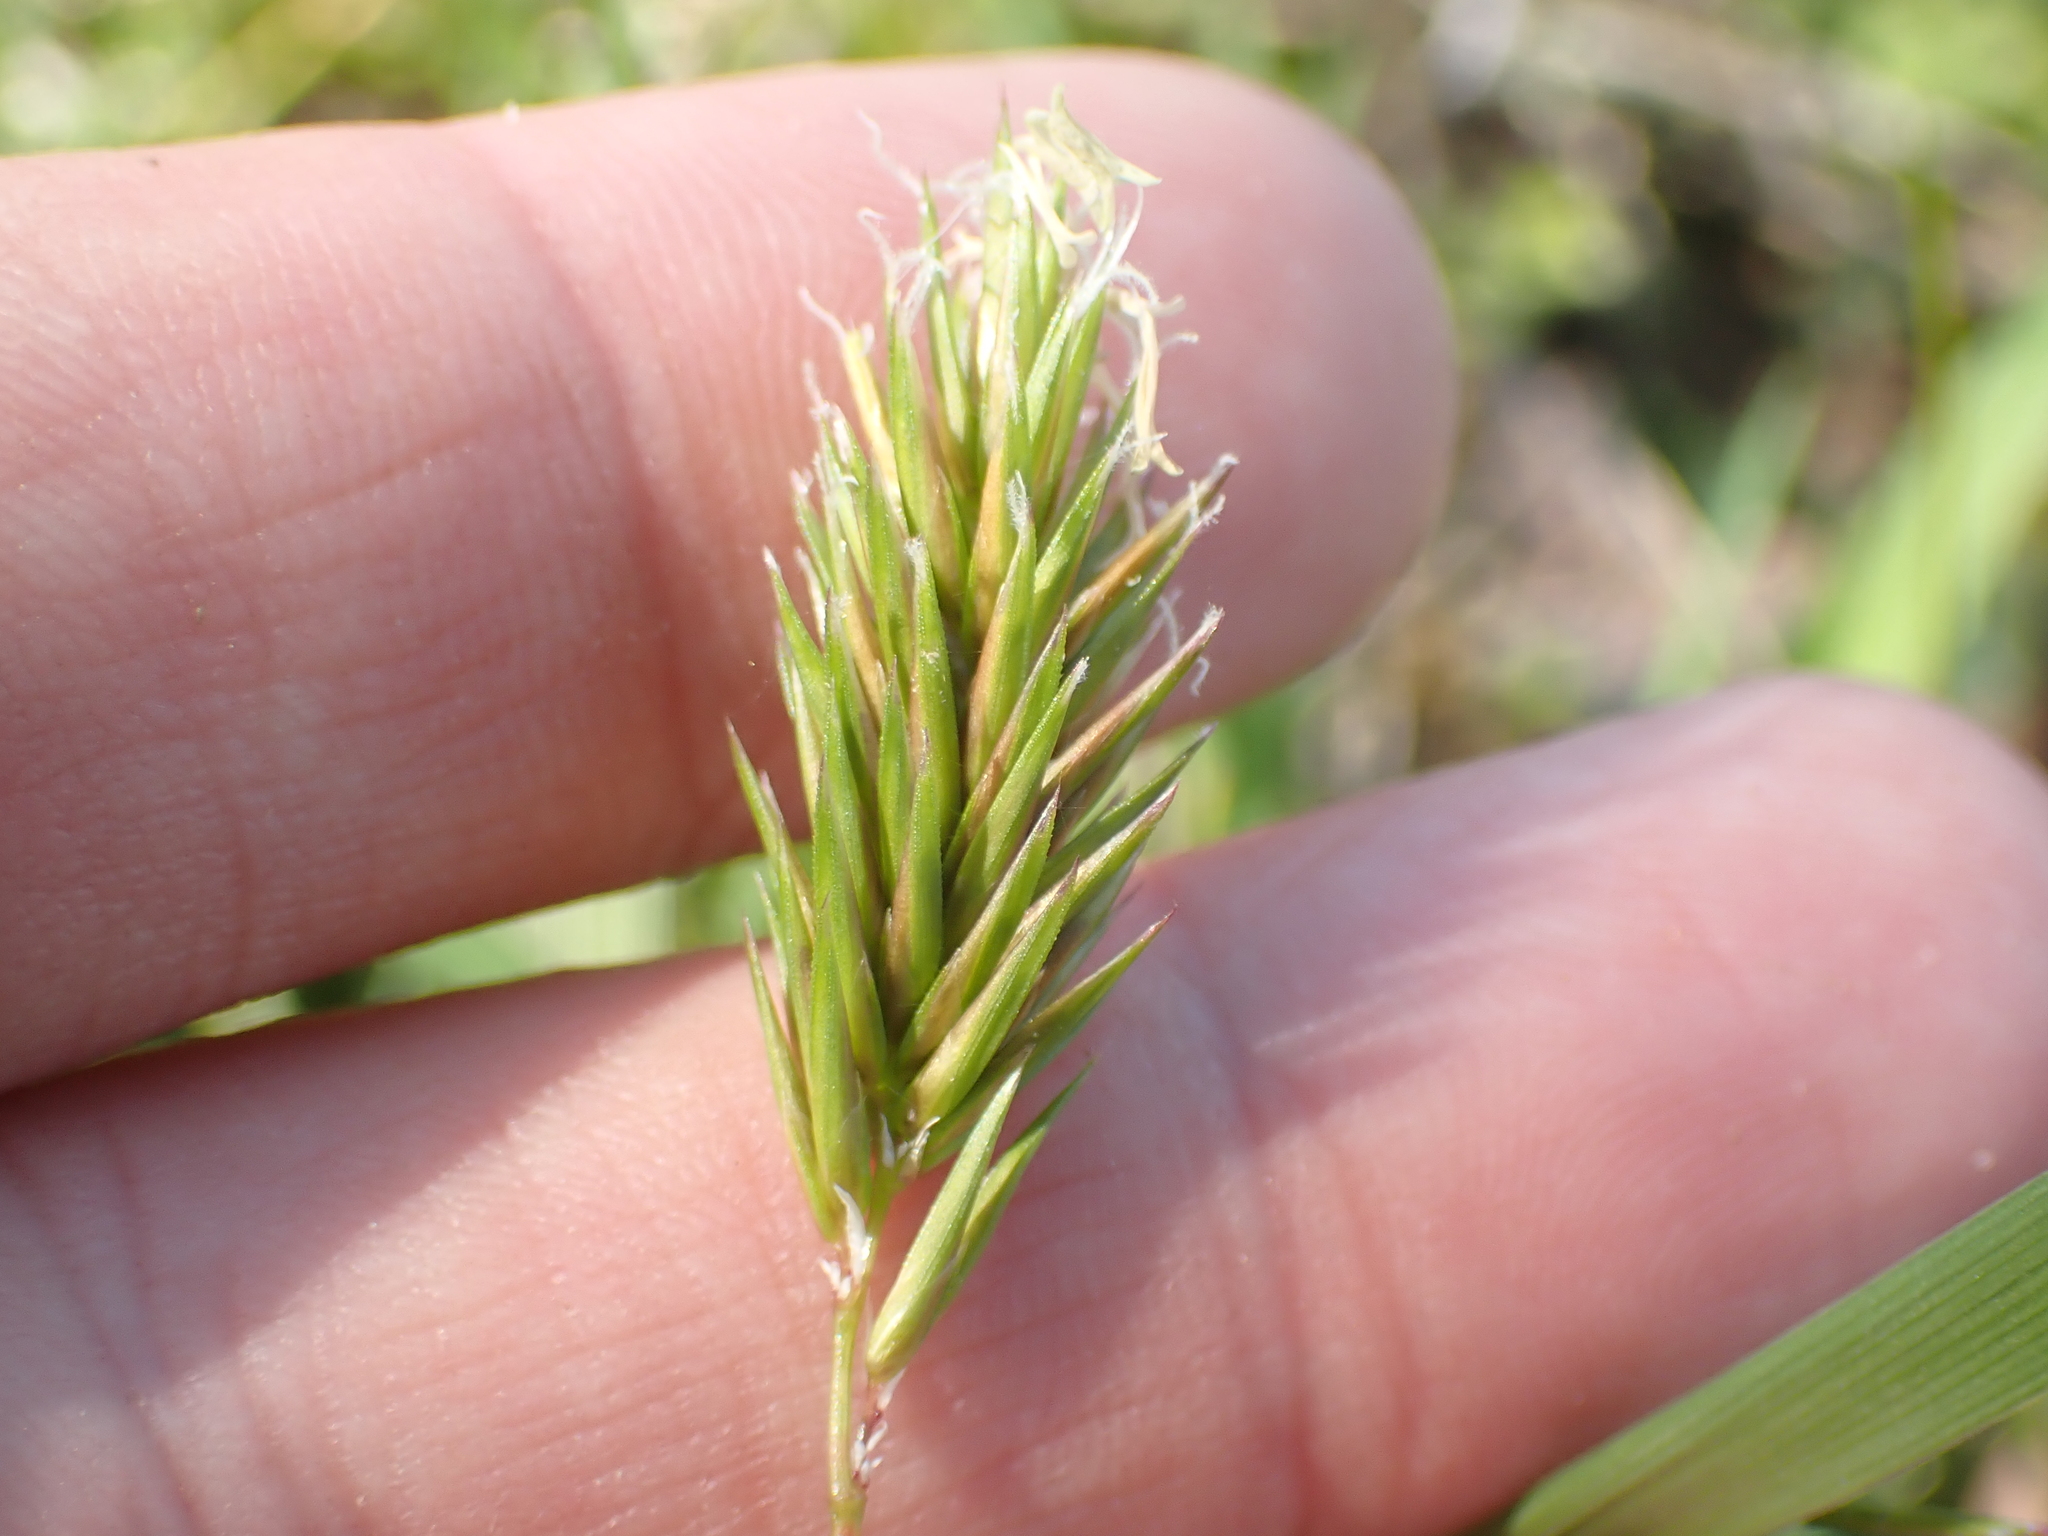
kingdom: Plantae
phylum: Tracheophyta
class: Liliopsida
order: Poales
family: Poaceae
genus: Anthoxanthum
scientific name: Anthoxanthum odoratum
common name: Sweet vernalgrass
